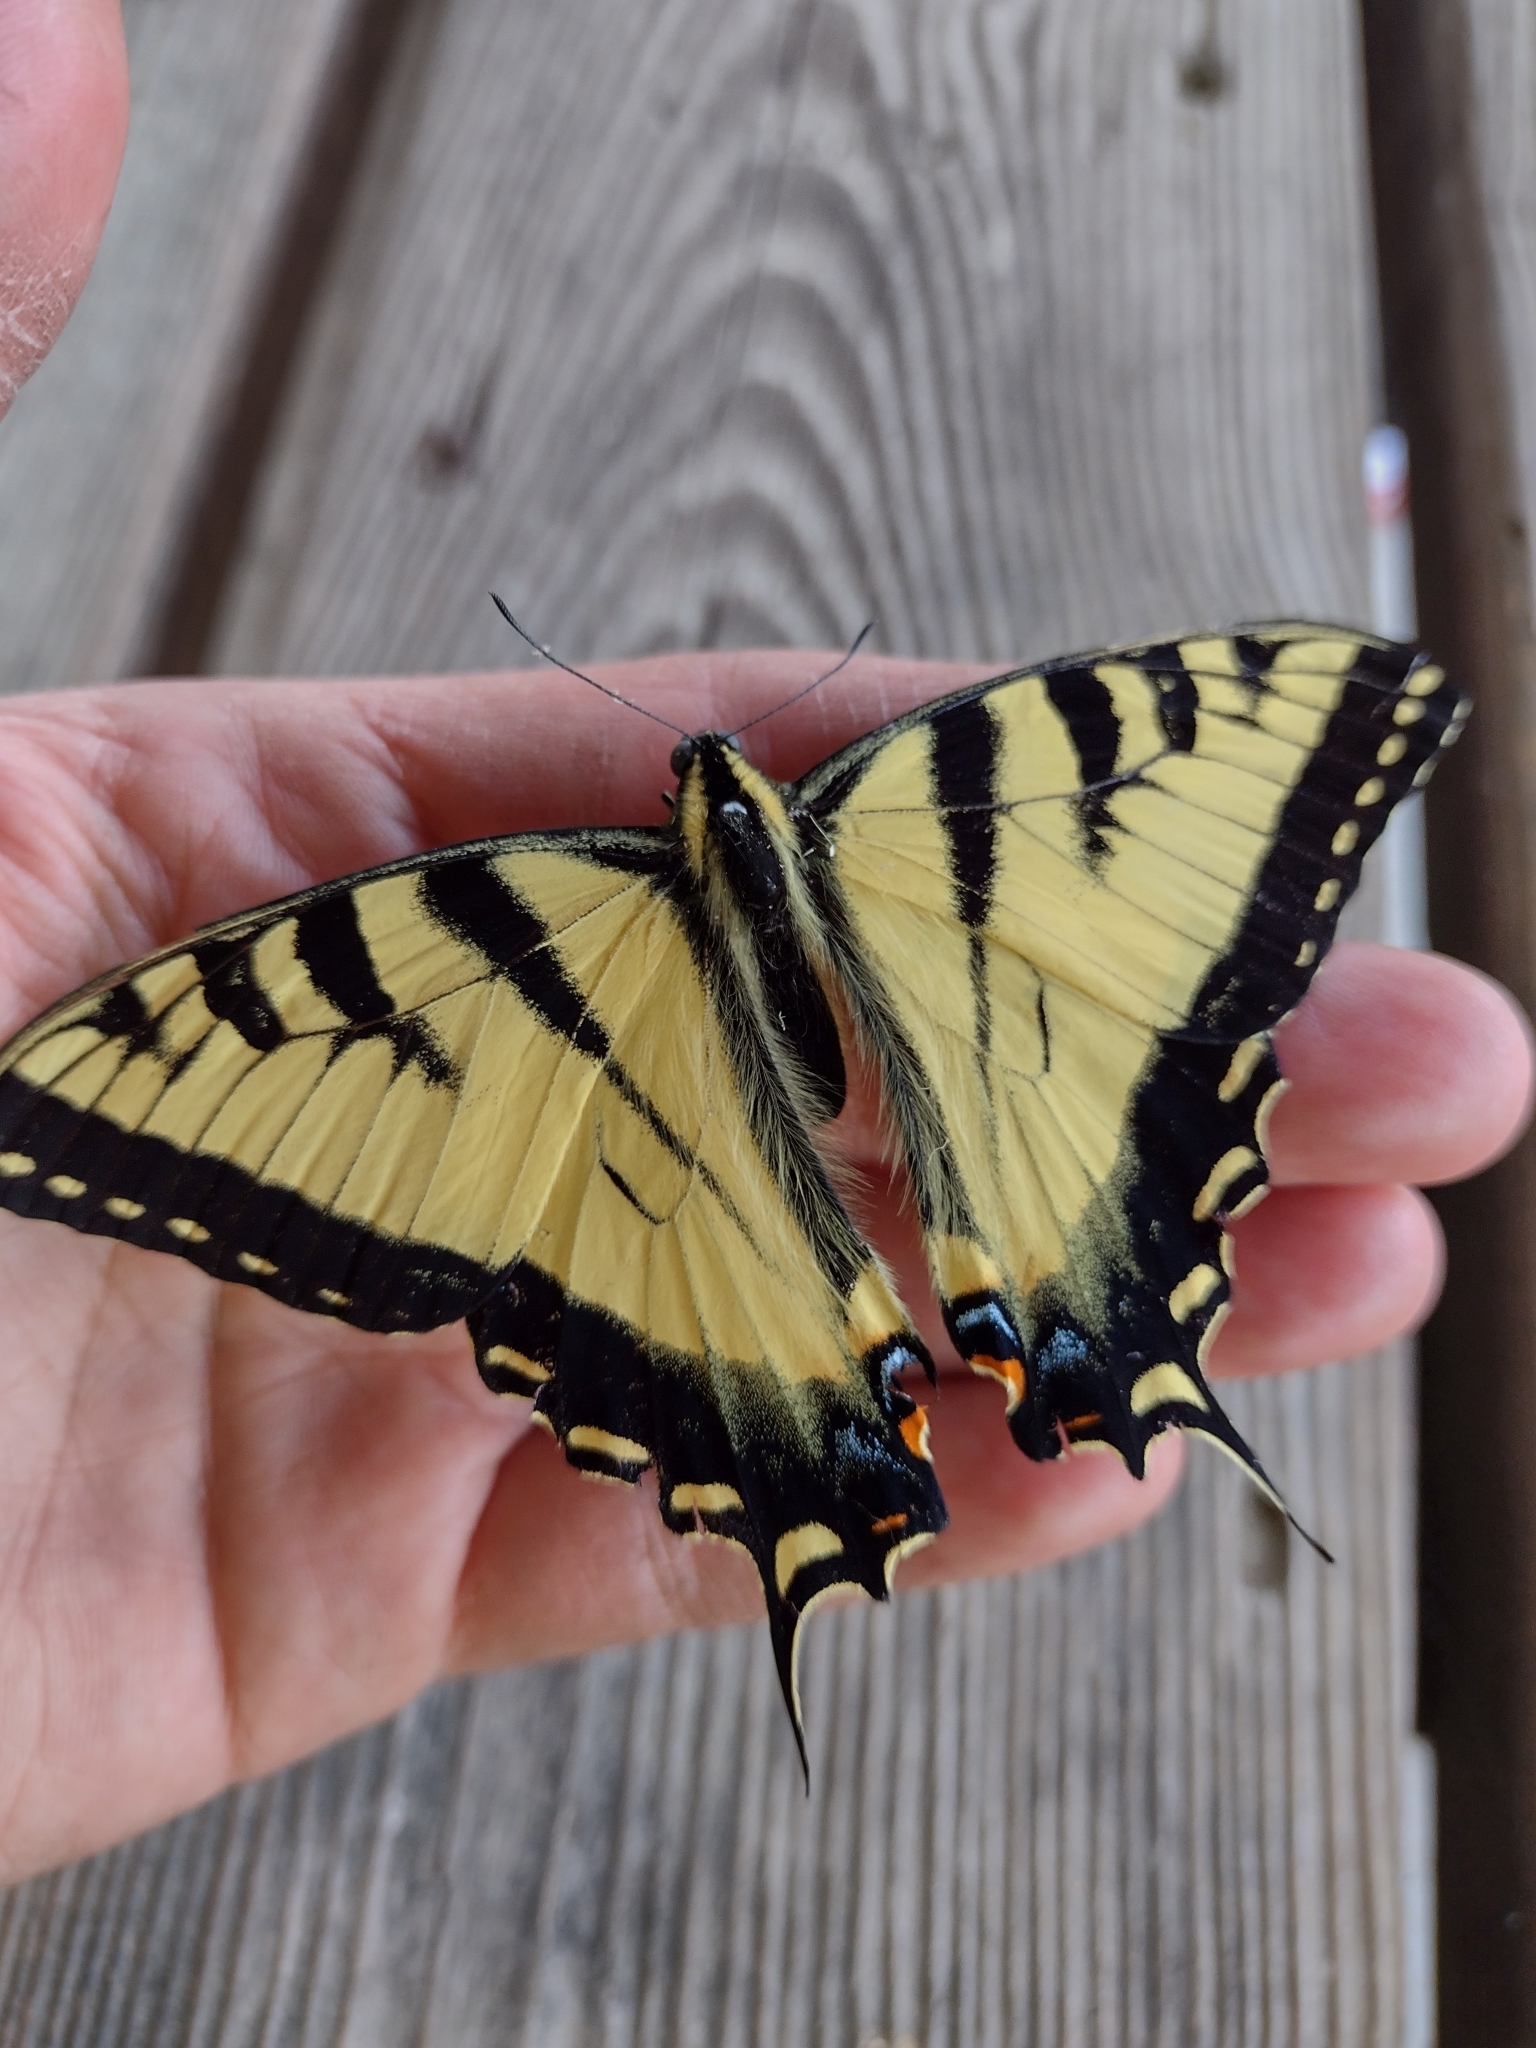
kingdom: Animalia
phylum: Arthropoda
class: Insecta
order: Lepidoptera
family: Papilionidae
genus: Papilio
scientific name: Papilio canadensis
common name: Canadian tiger swallowtail
